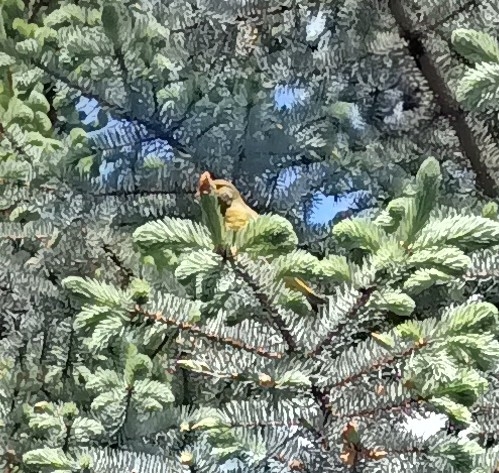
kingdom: Plantae
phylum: Tracheophyta
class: Liliopsida
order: Poales
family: Poaceae
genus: Chloris
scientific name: Chloris chloris
